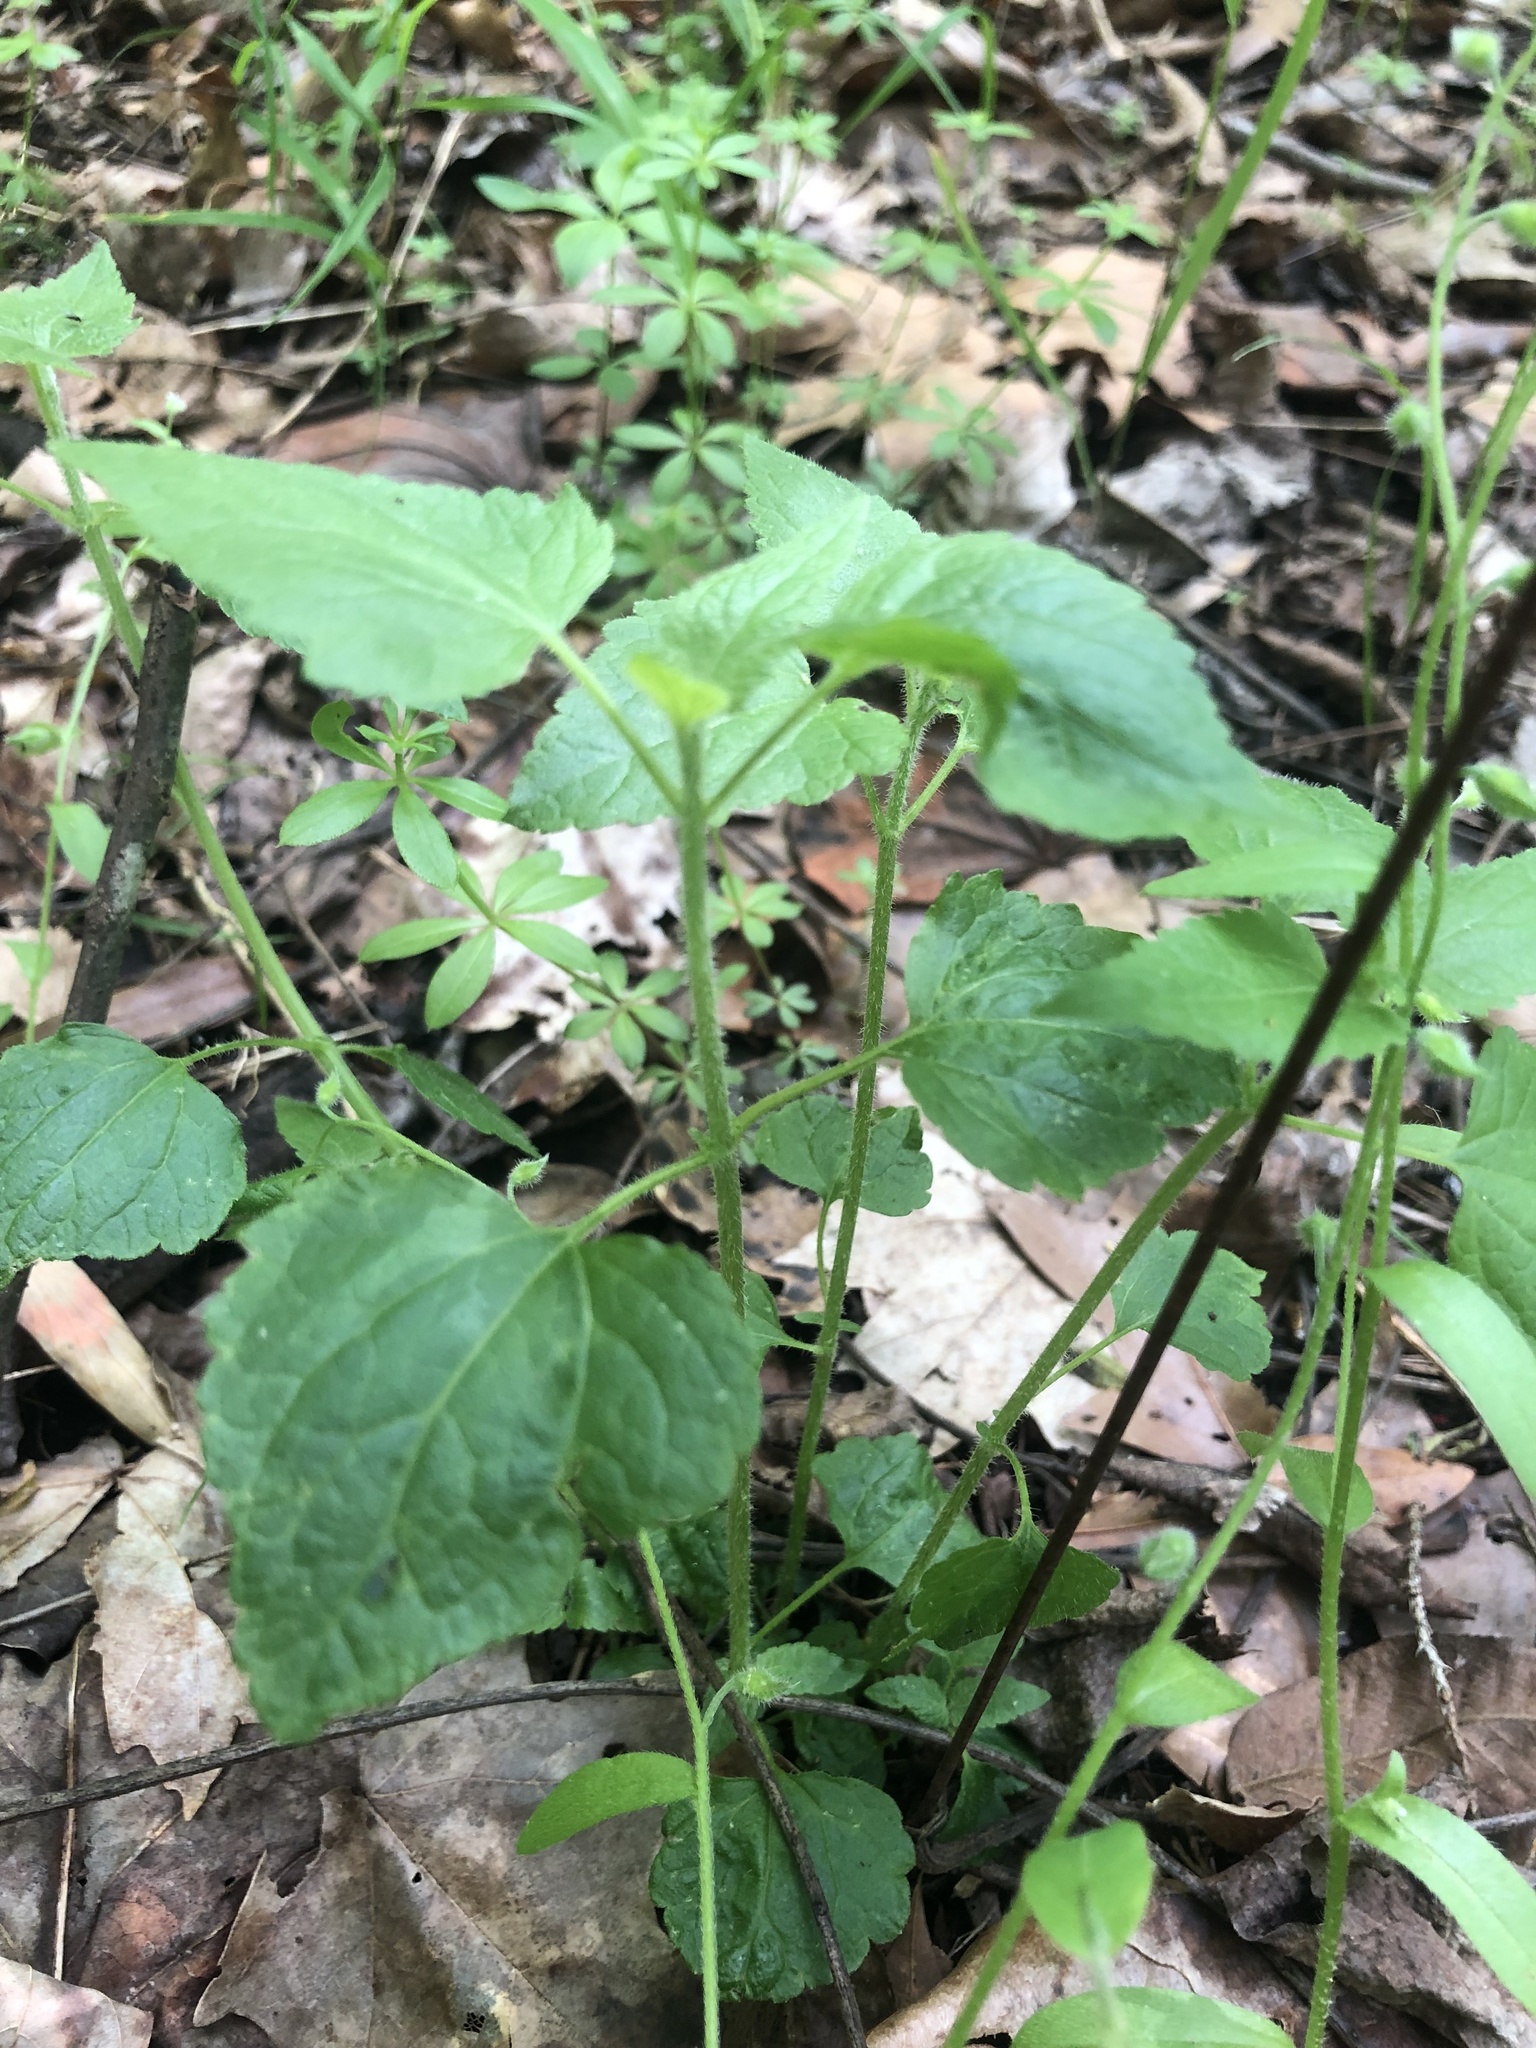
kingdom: Plantae
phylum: Tracheophyta
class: Magnoliopsida
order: Asterales
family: Asteraceae
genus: Fleischmannia
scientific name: Fleischmannia incarnata
